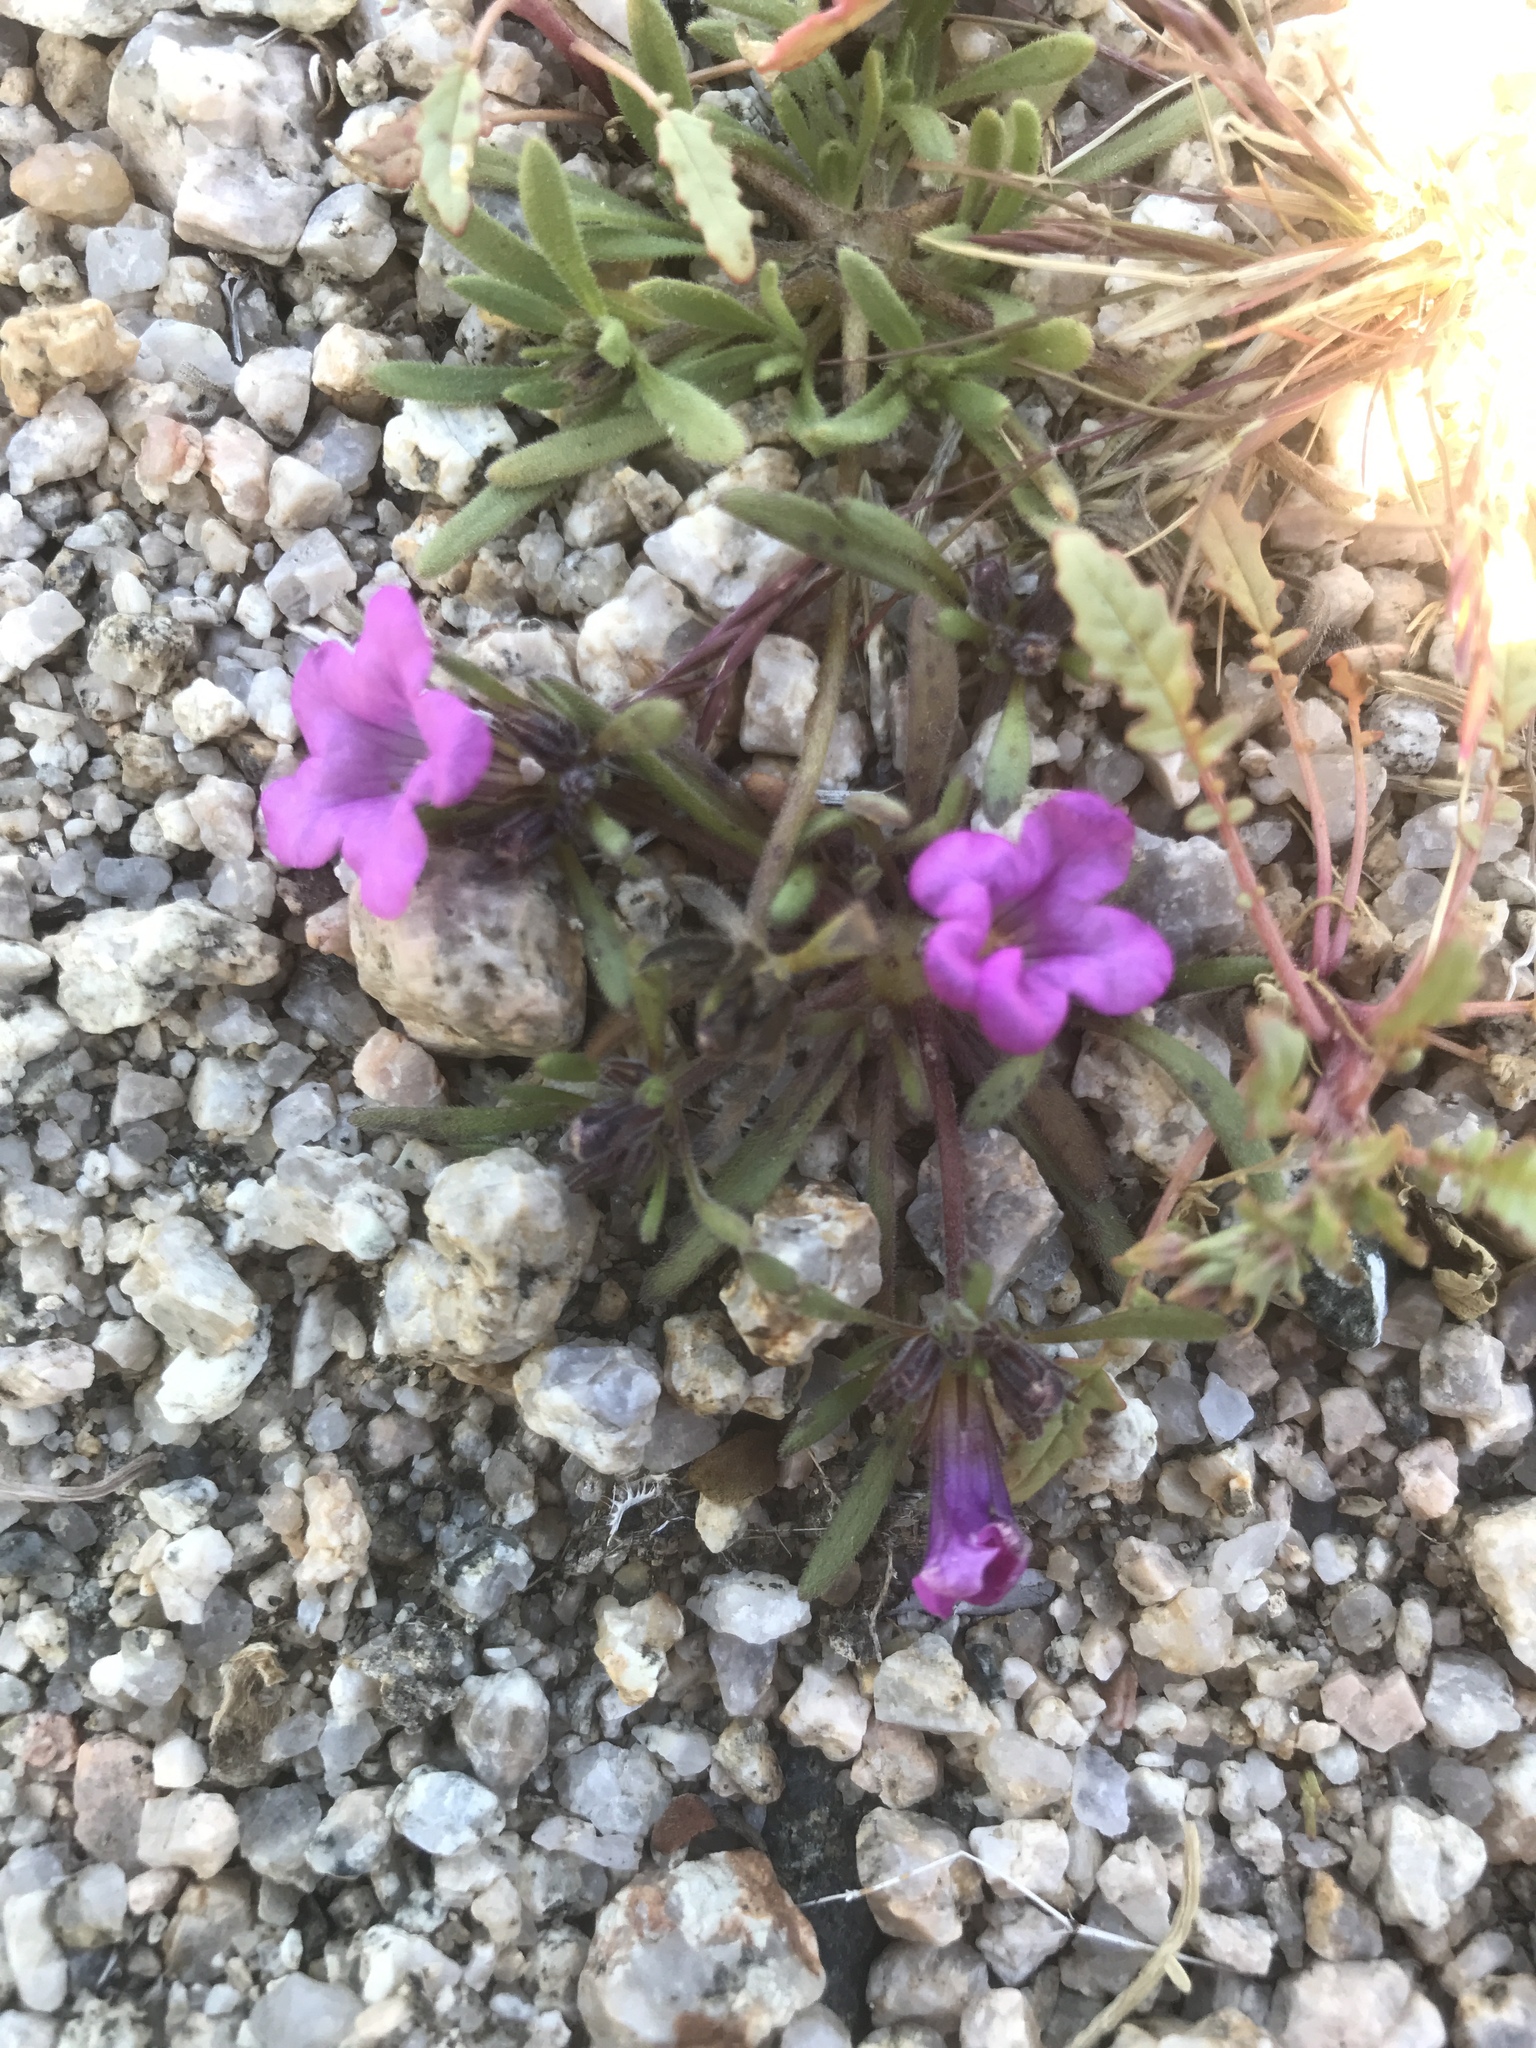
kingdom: Plantae
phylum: Tracheophyta
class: Magnoliopsida
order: Boraginales
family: Namaceae
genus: Nama
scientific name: Nama demissa
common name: Leafy nama
